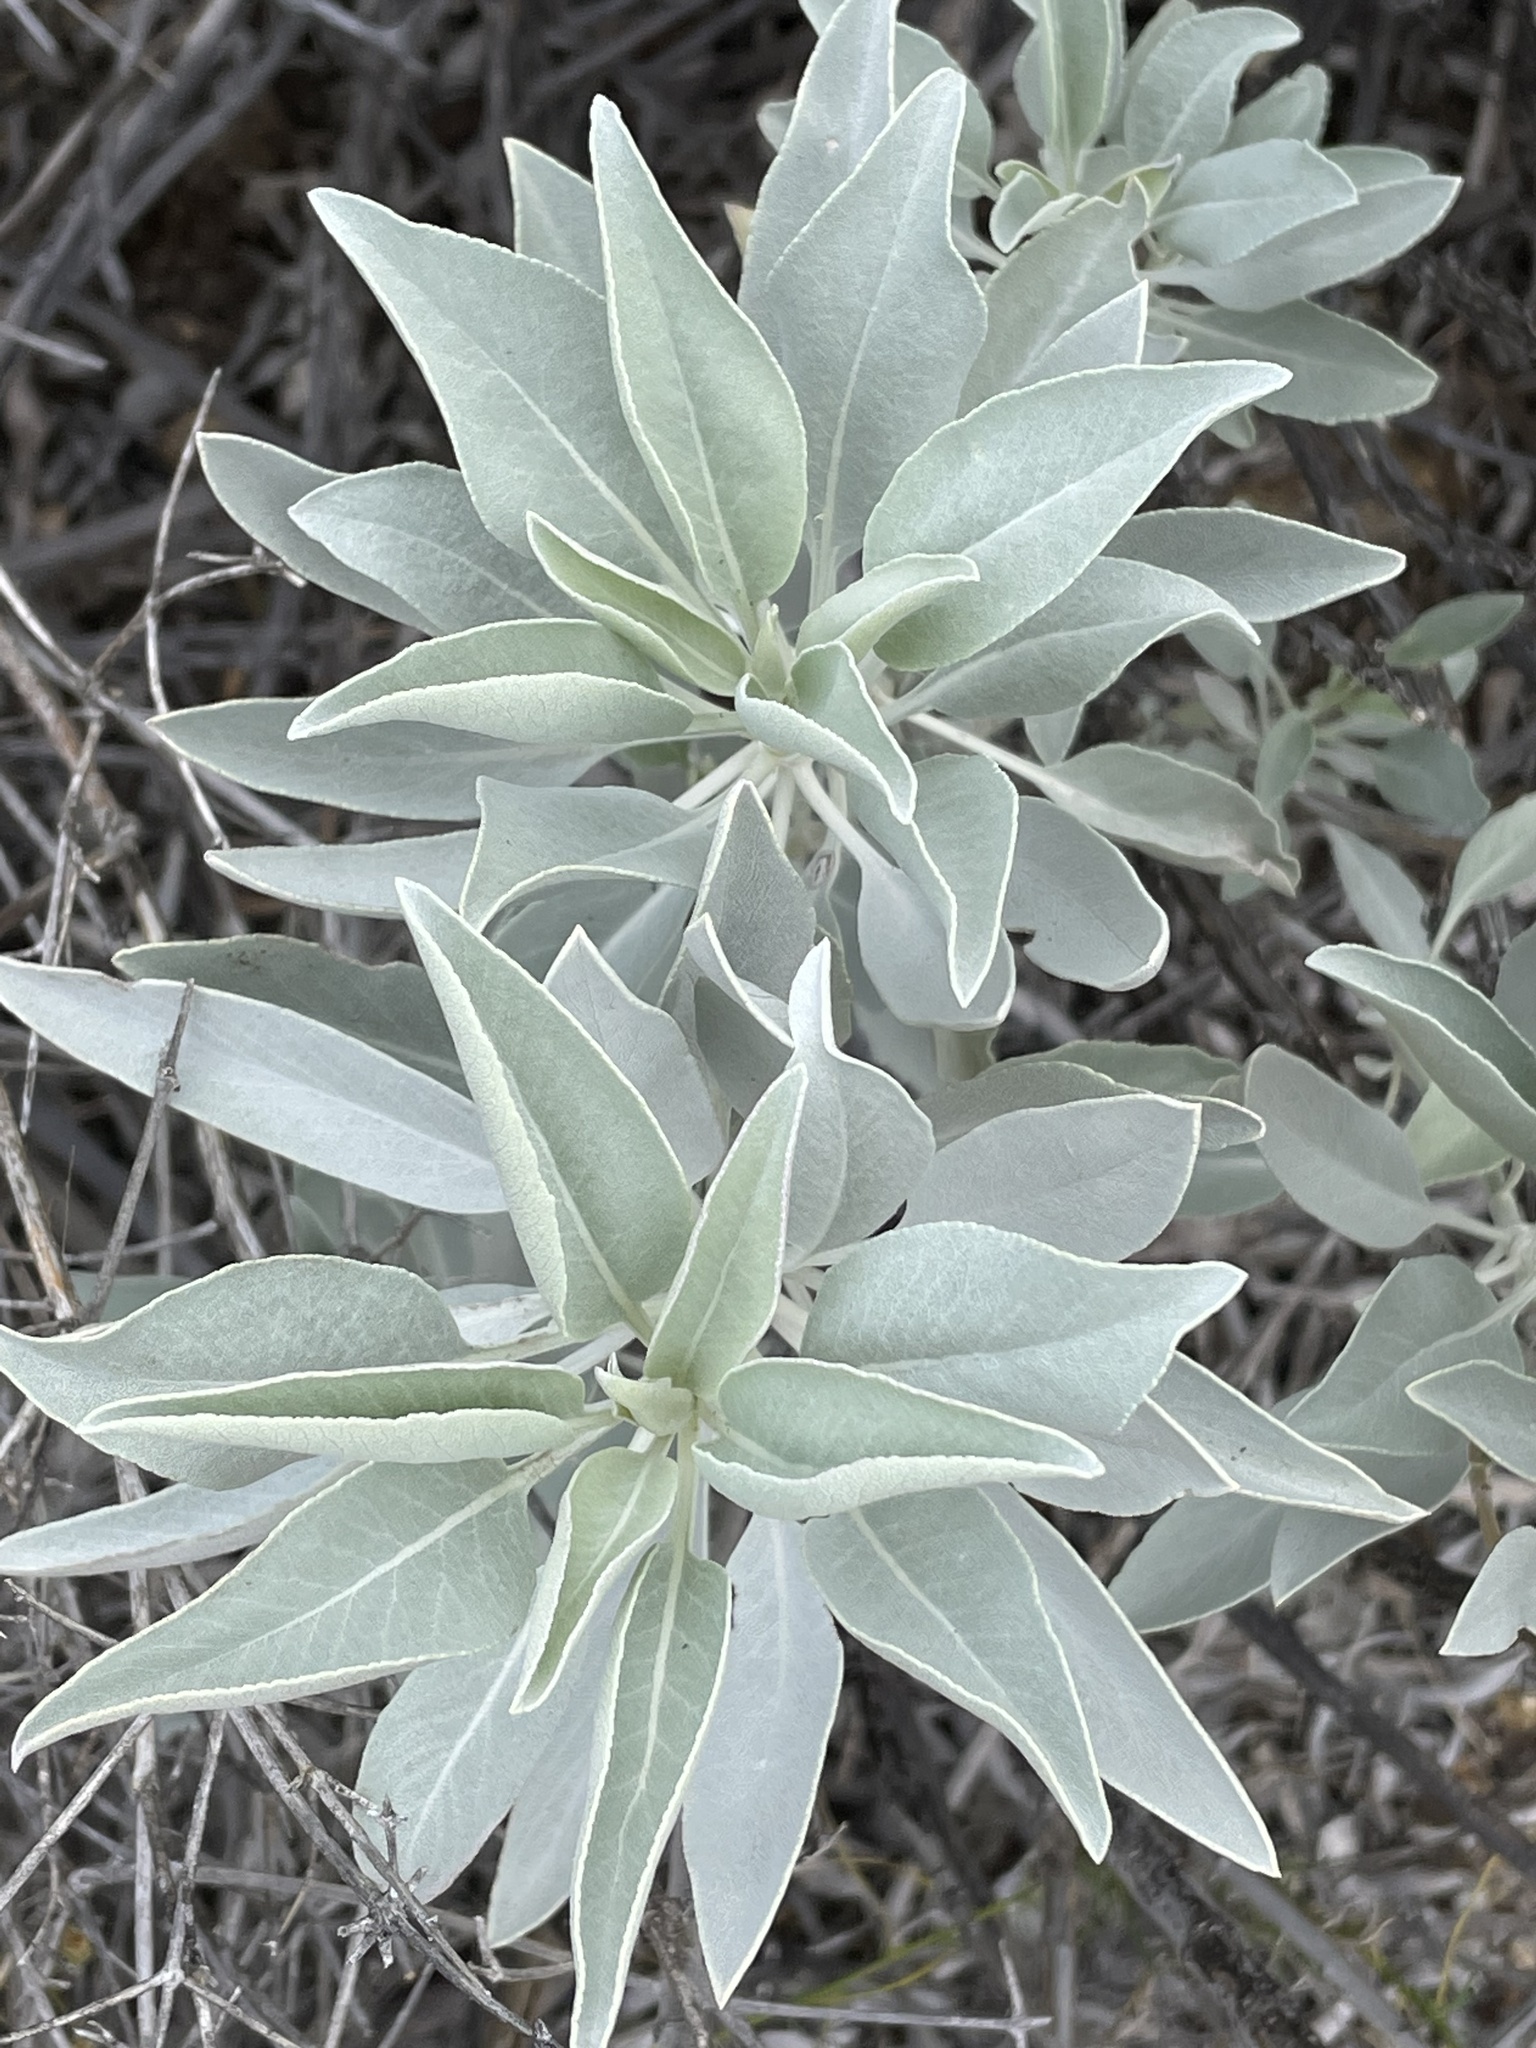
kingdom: Plantae
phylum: Tracheophyta
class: Magnoliopsida
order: Lamiales
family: Lamiaceae
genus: Salvia
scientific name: Salvia apiana
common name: White sage
